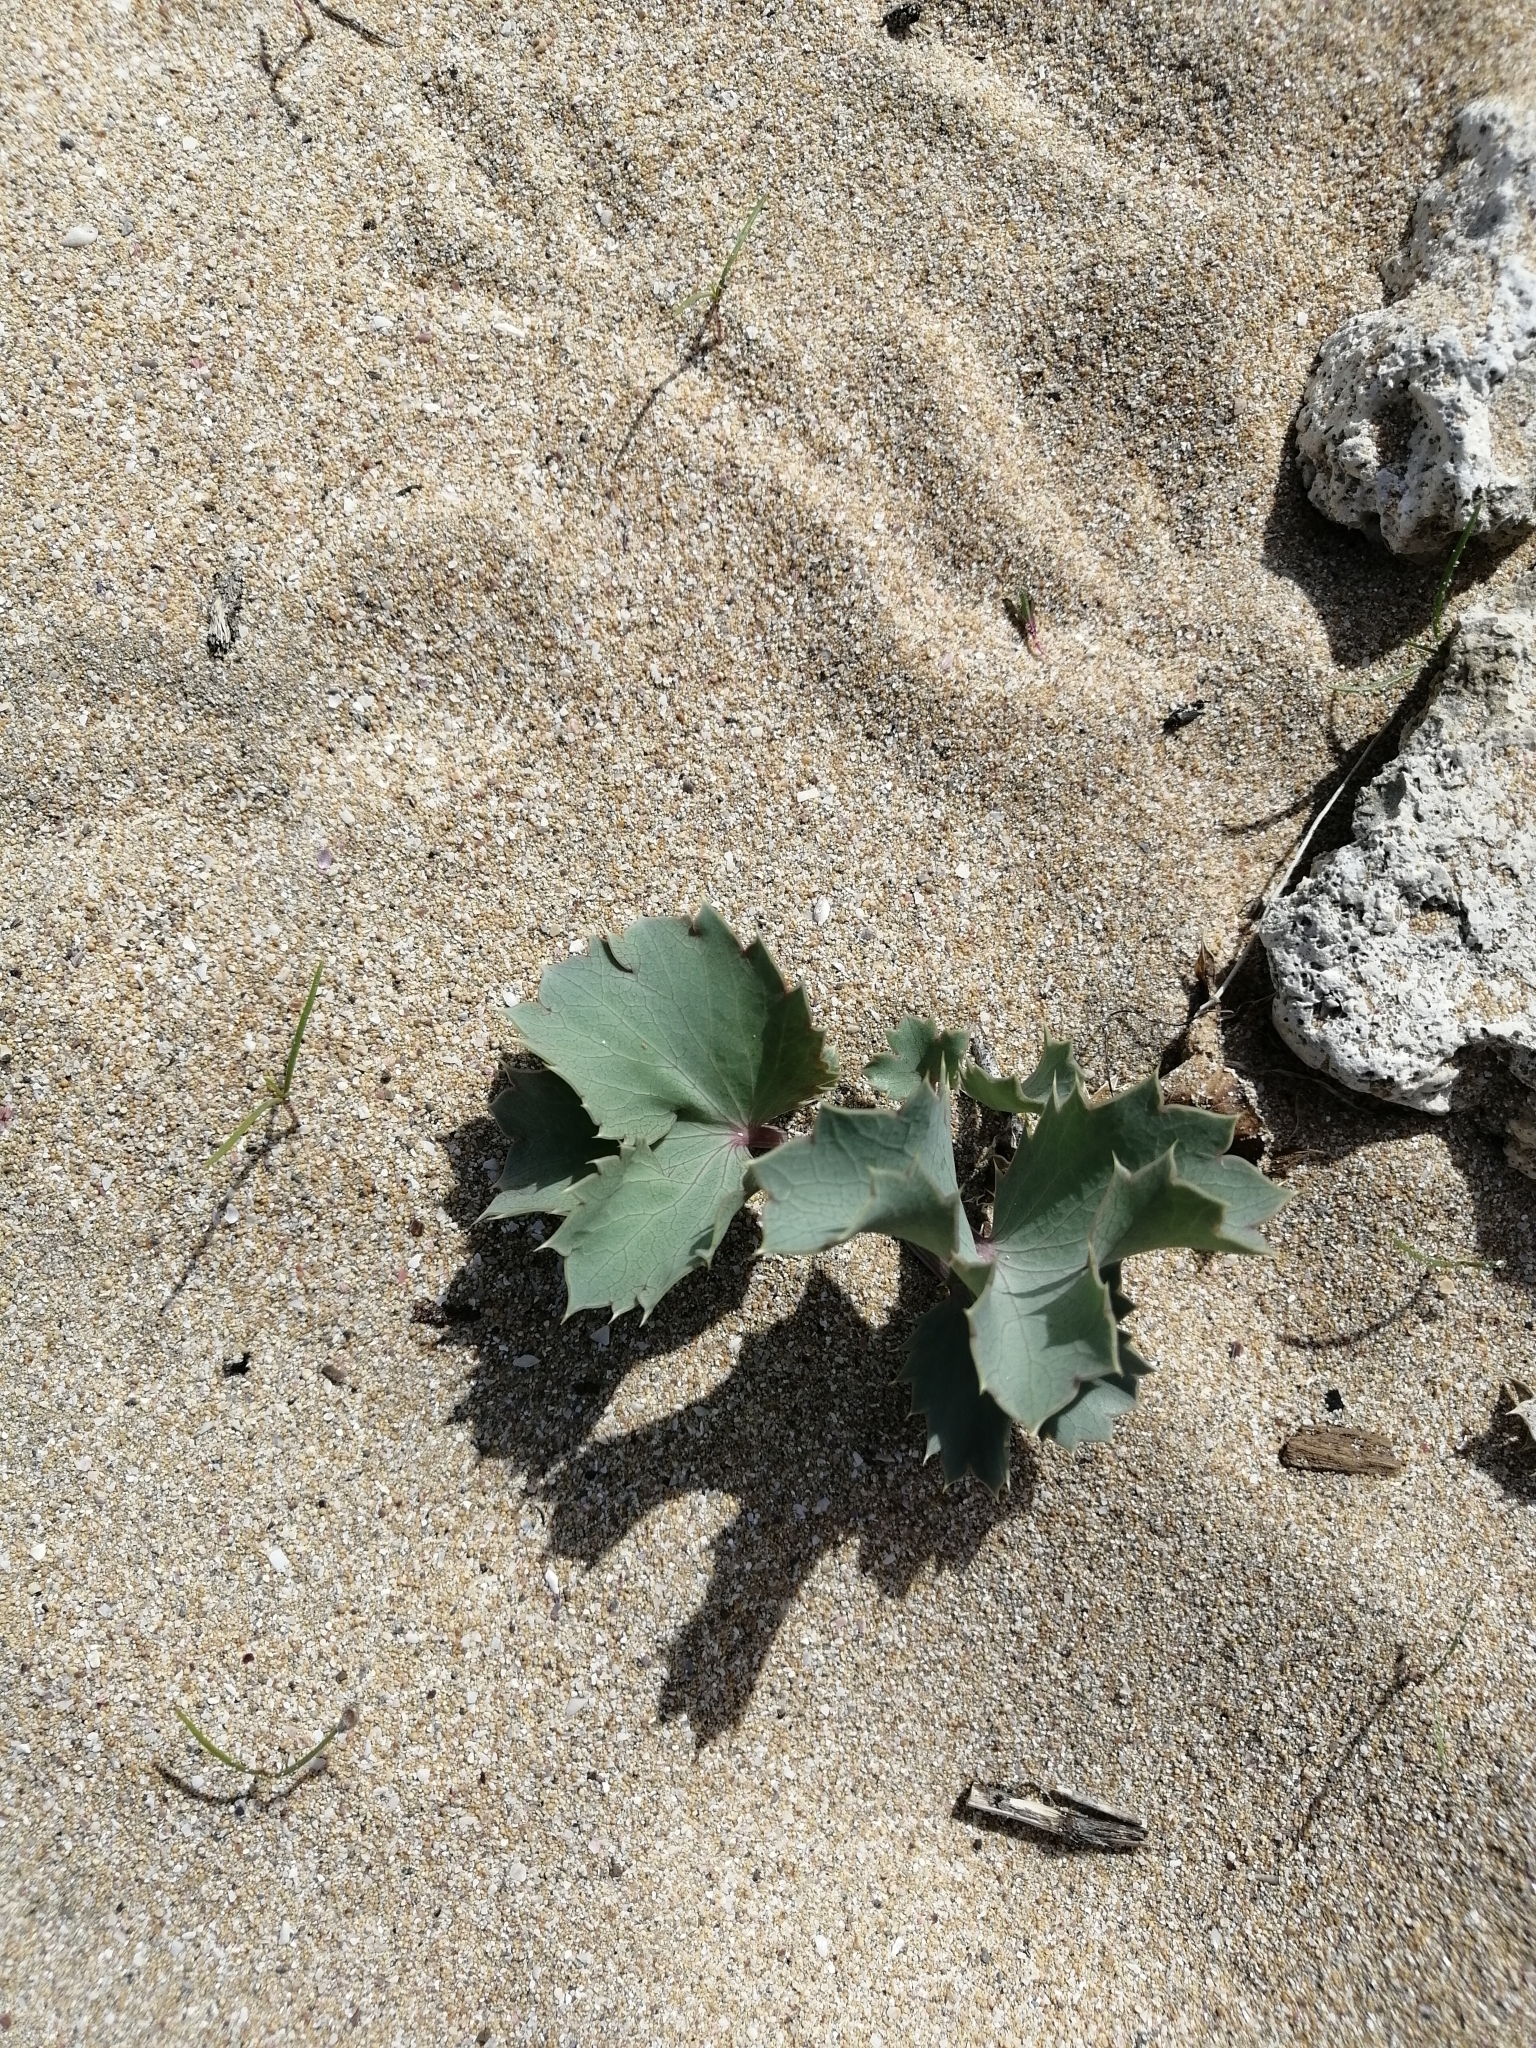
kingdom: Plantae
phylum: Tracheophyta
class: Magnoliopsida
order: Apiales
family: Apiaceae
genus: Eryngium
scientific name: Eryngium maritimum
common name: Sea-holly
